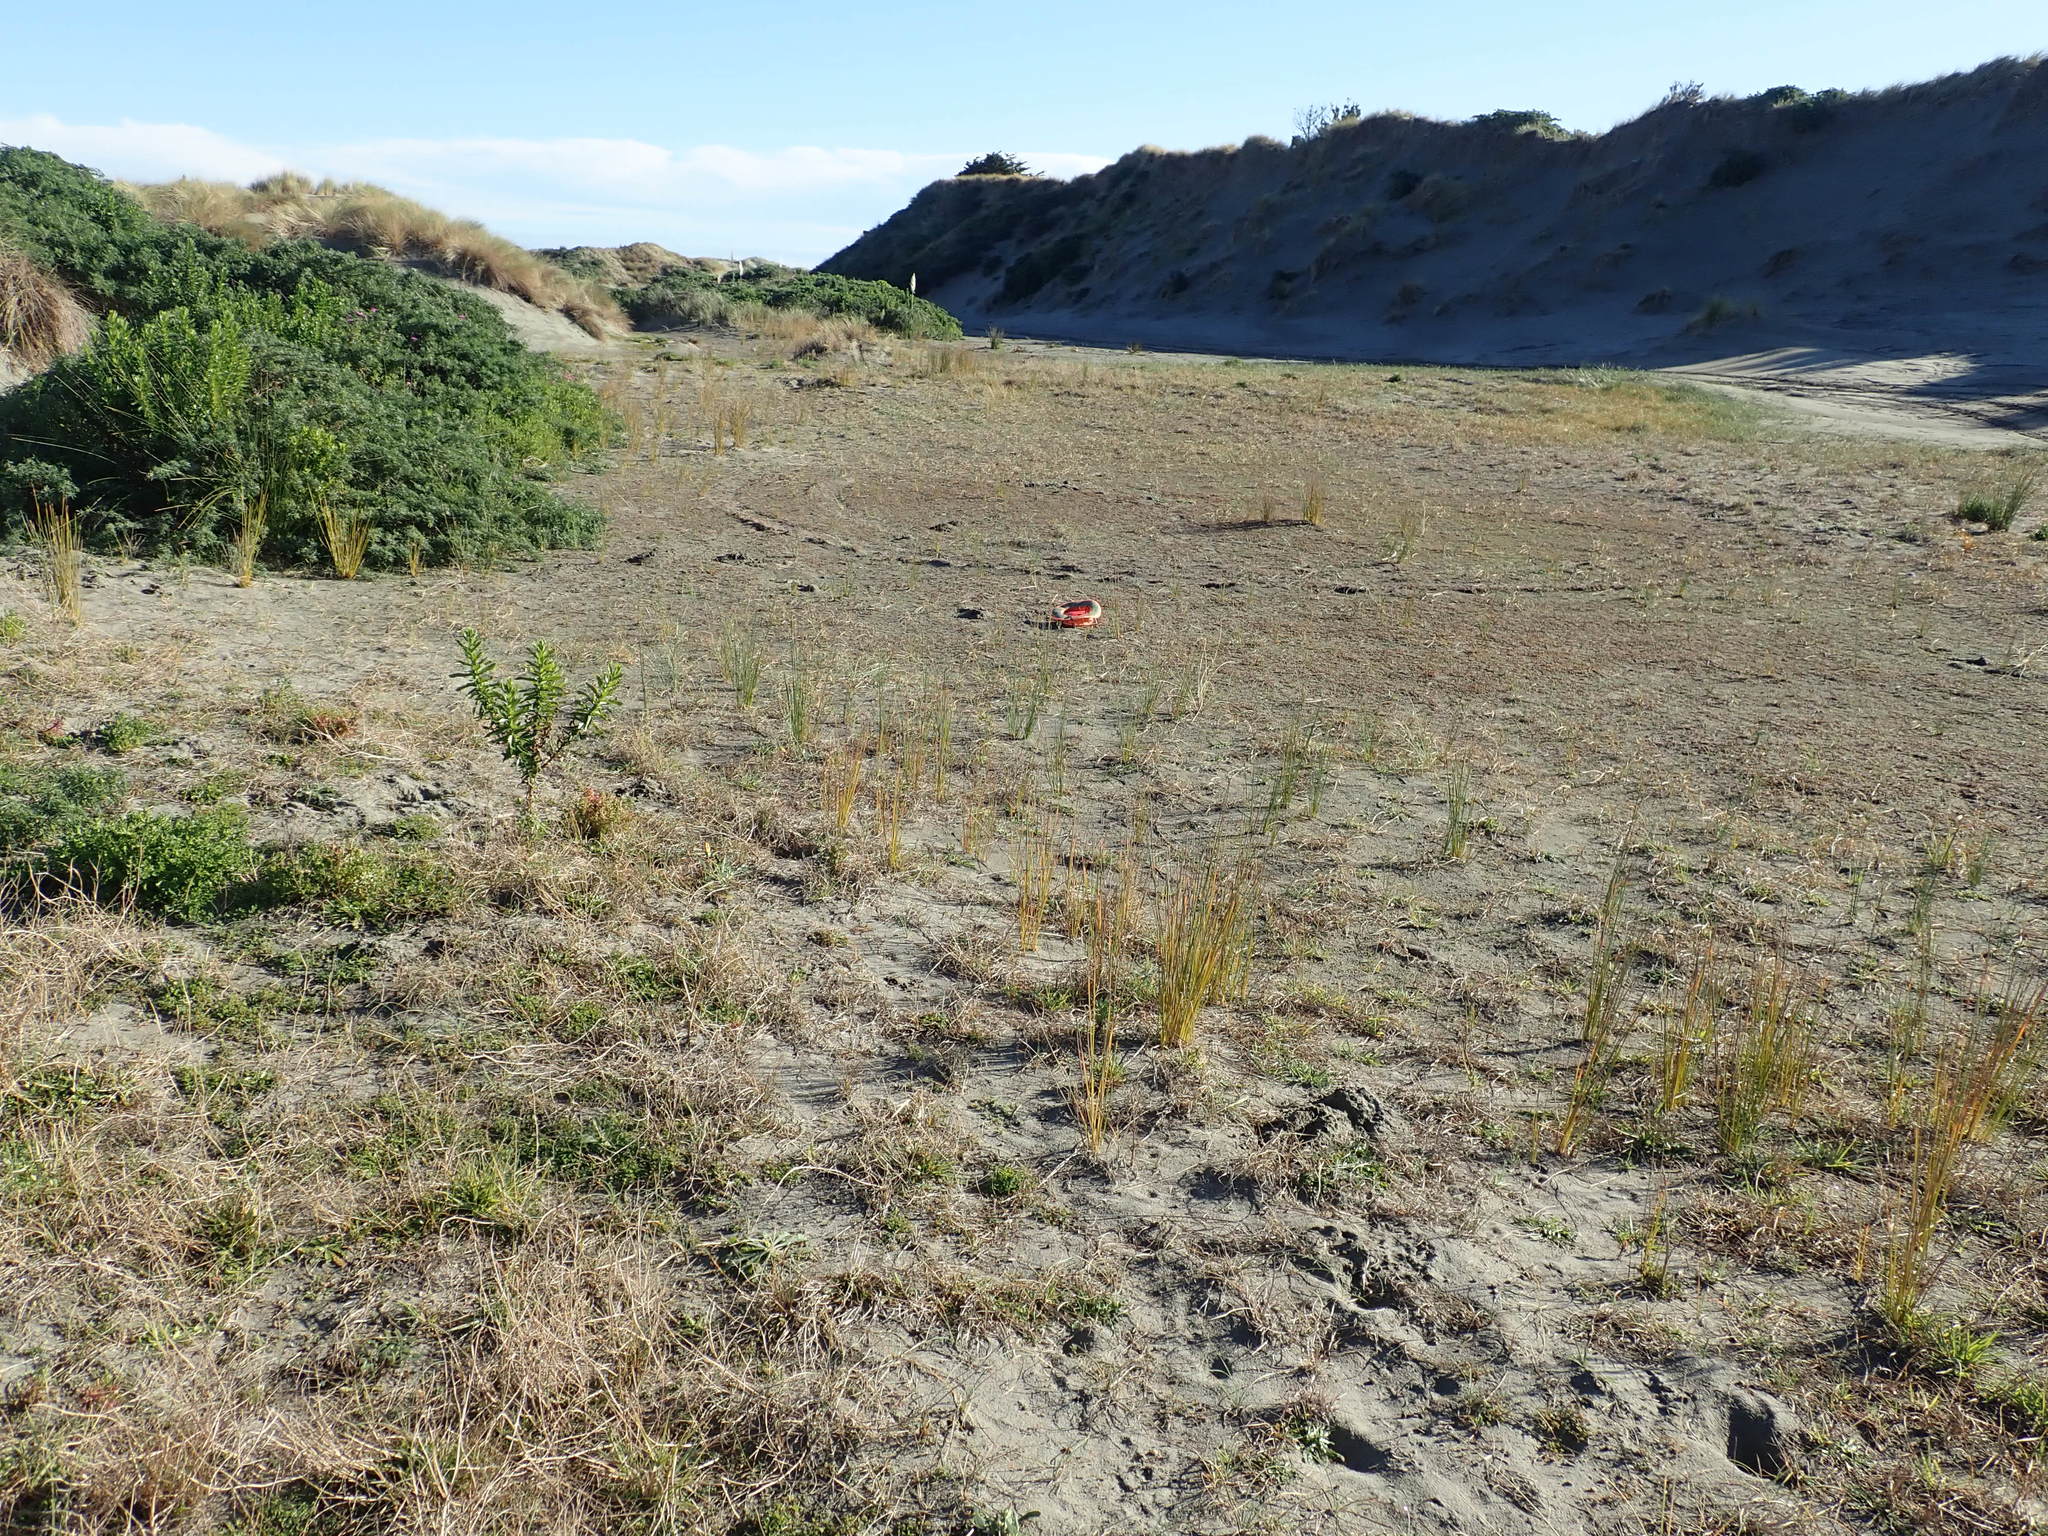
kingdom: Plantae
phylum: Tracheophyta
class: Magnoliopsida
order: Apiales
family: Apiaceae
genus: Lilaeopsis
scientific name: Lilaeopsis novae-zelandiae
